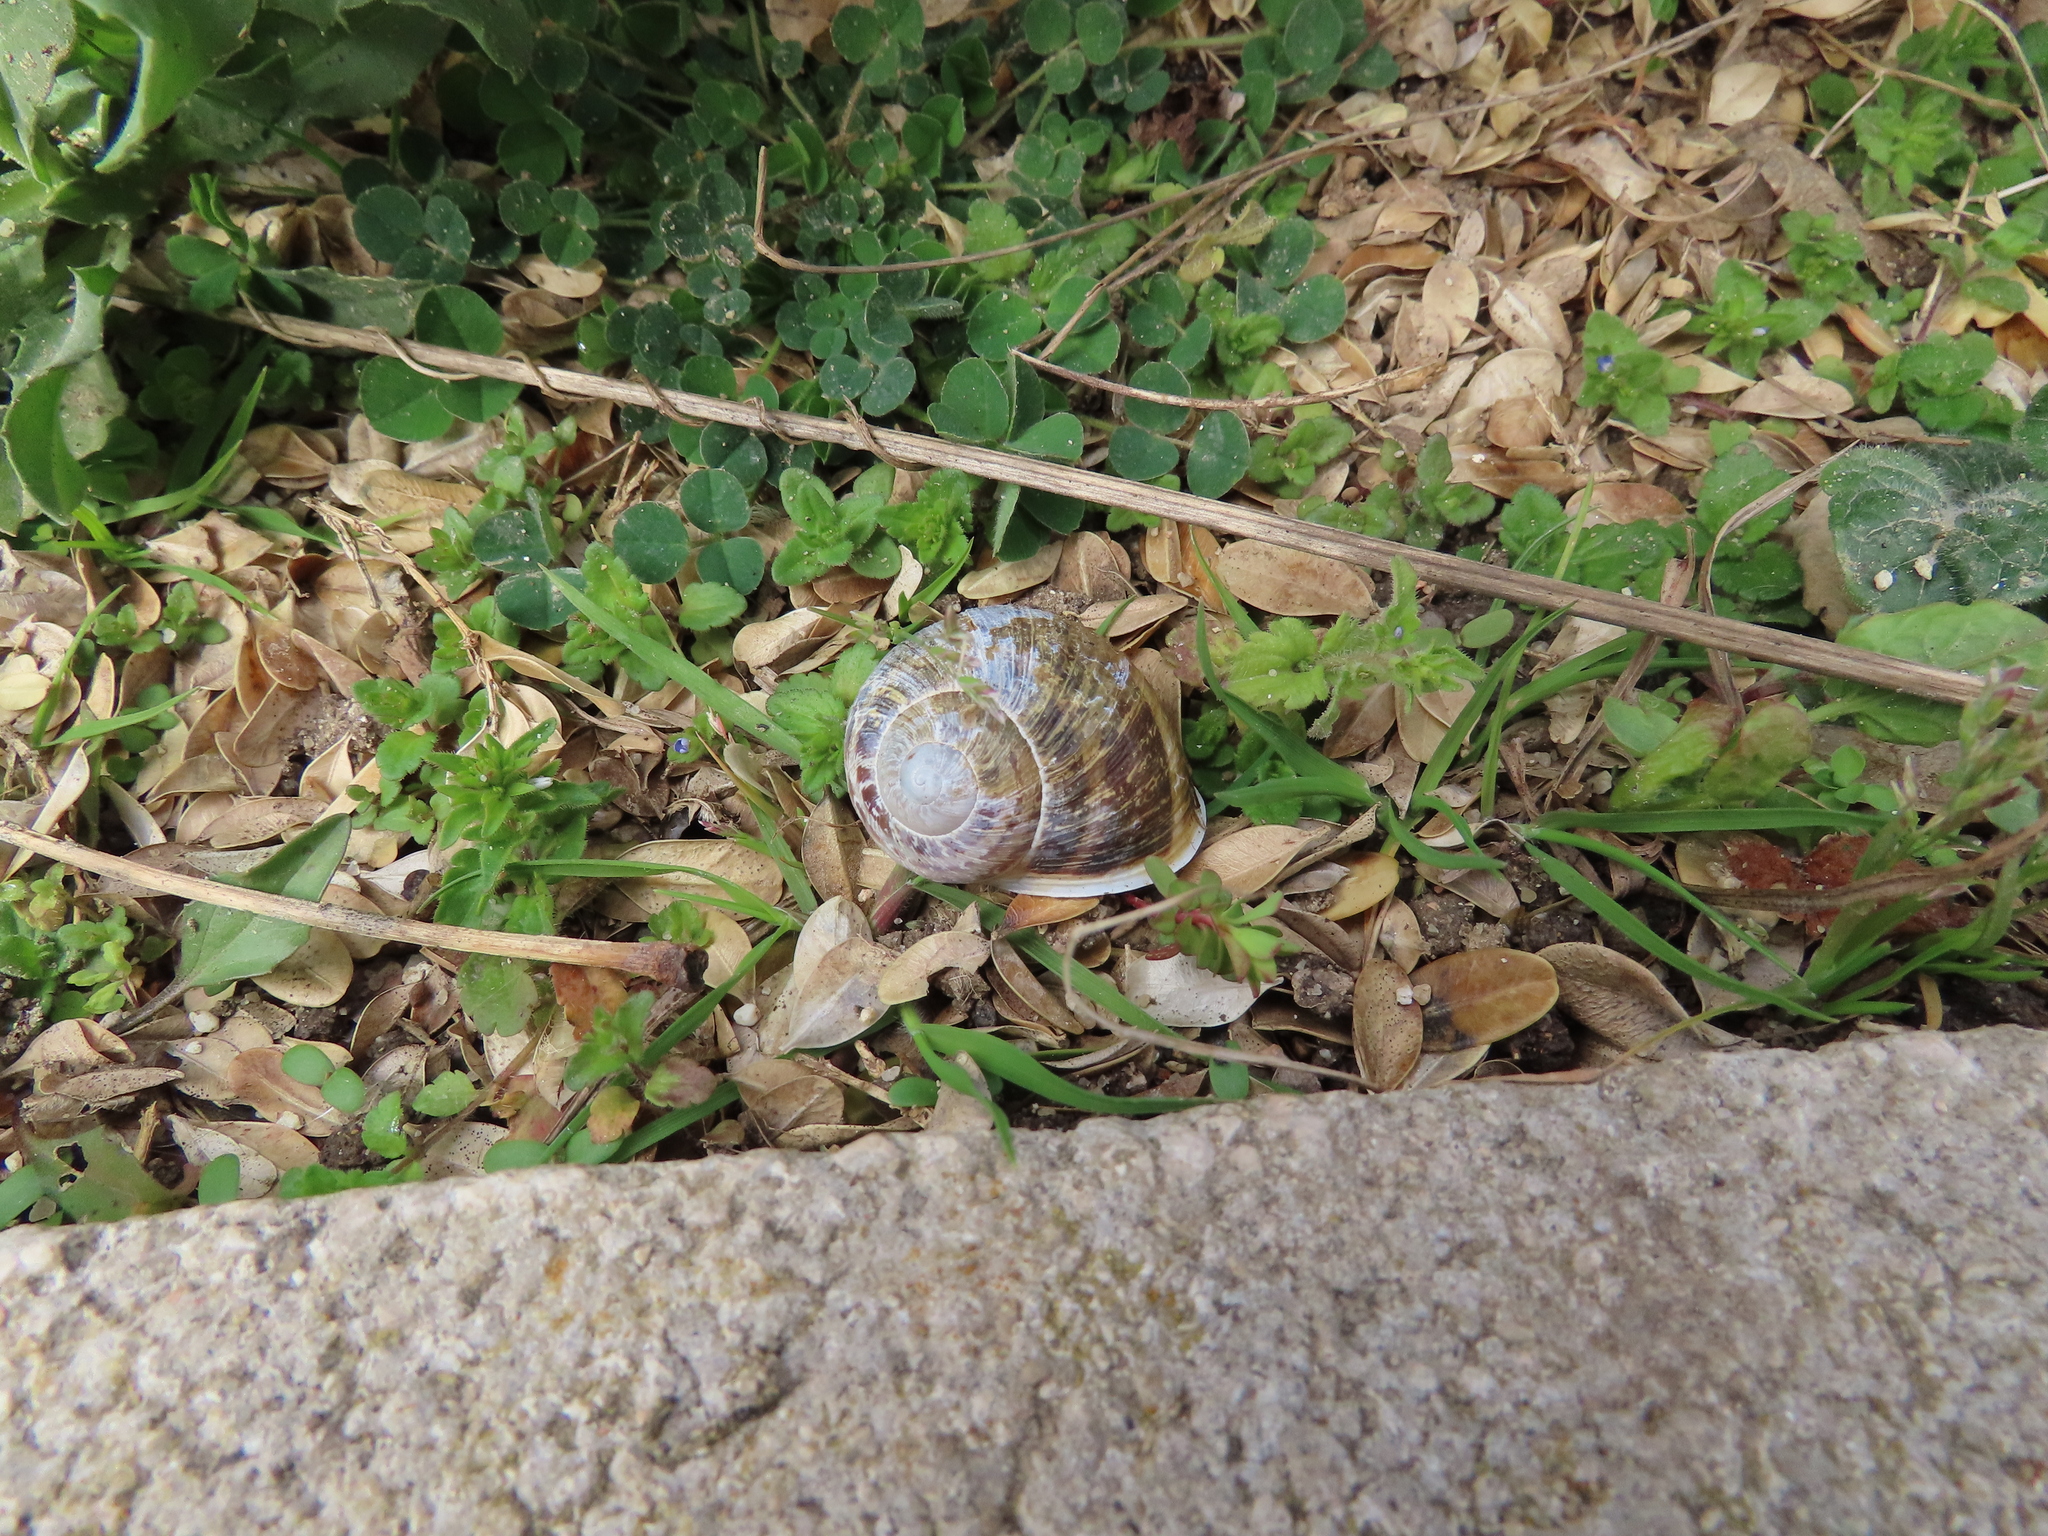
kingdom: Animalia
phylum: Mollusca
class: Gastropoda
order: Stylommatophora
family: Helicidae
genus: Cornu
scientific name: Cornu aspersum
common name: Brown garden snail
